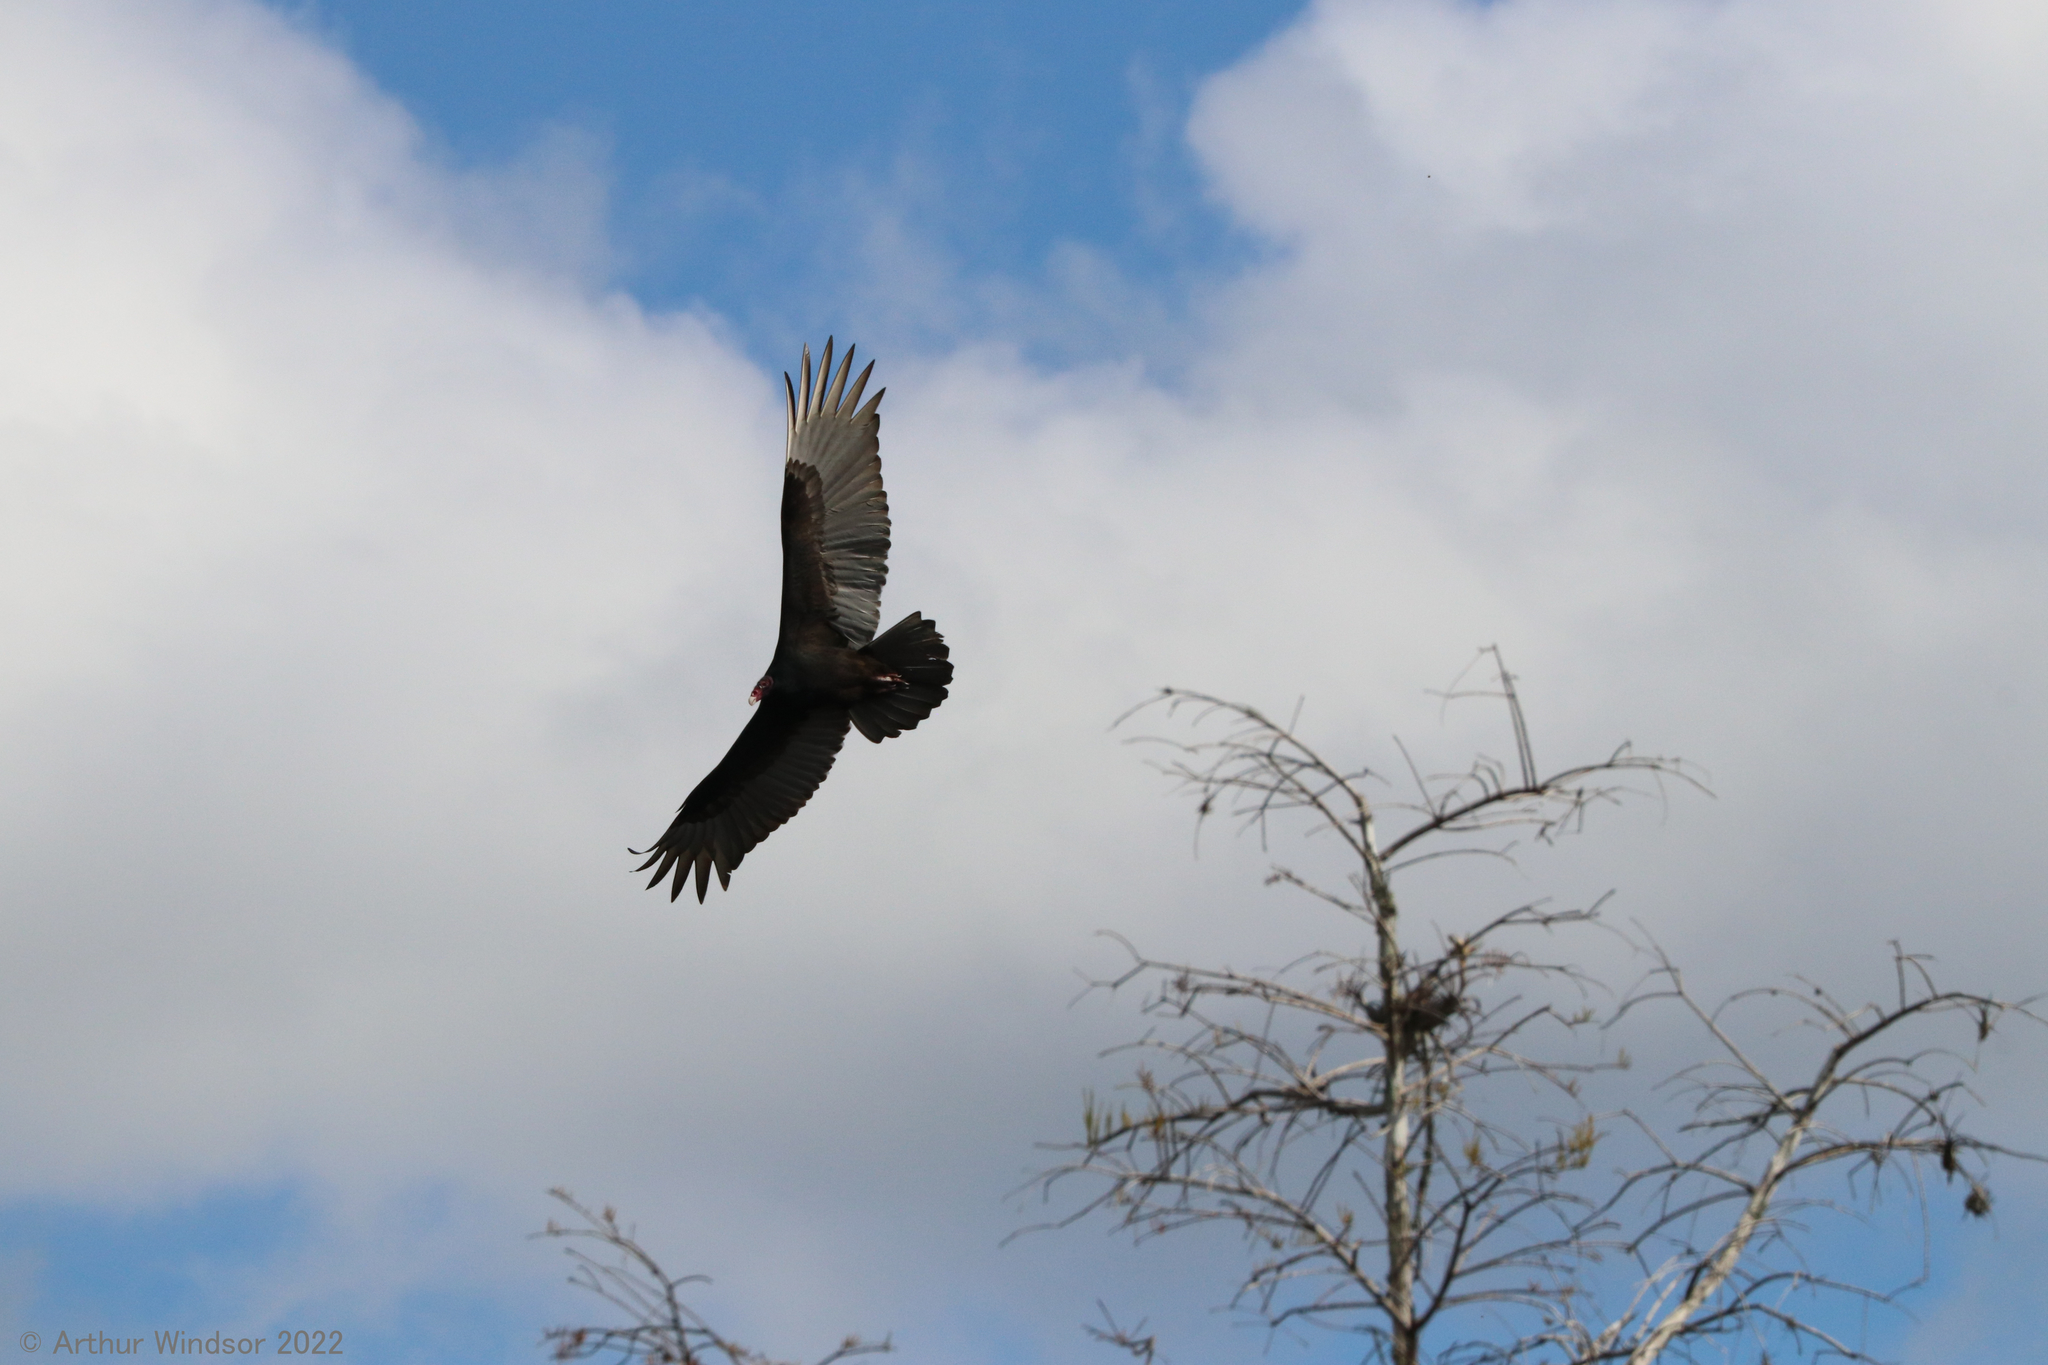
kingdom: Animalia
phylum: Chordata
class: Aves
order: Accipitriformes
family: Cathartidae
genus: Cathartes
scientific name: Cathartes aura
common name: Turkey vulture
